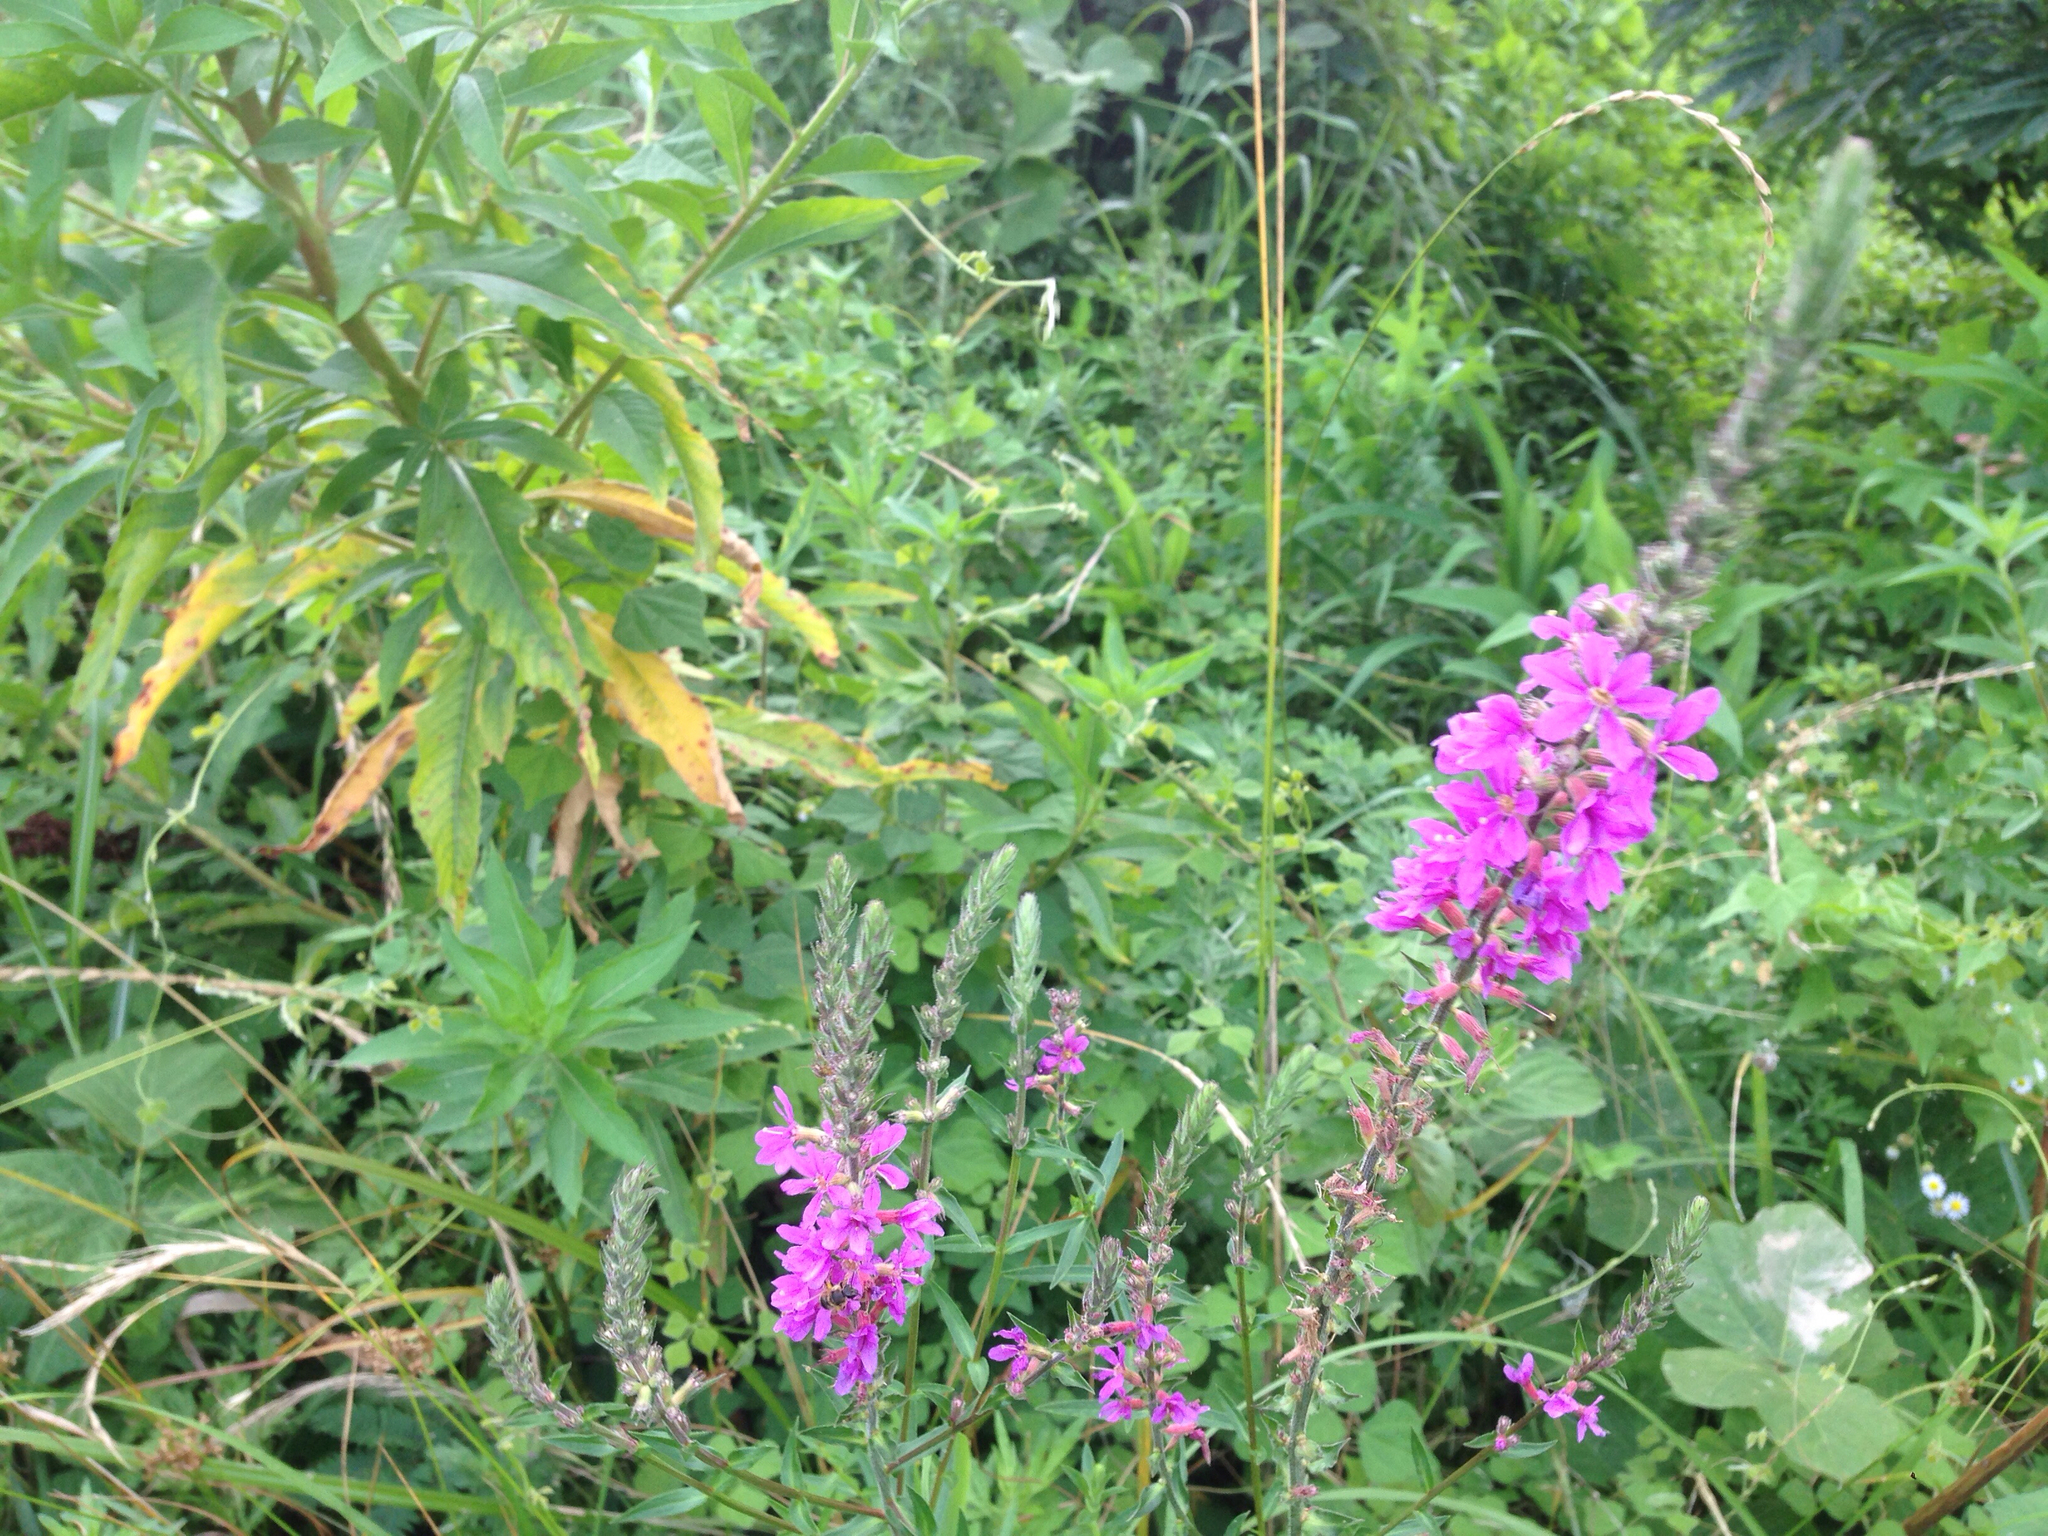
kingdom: Plantae
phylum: Tracheophyta
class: Magnoliopsida
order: Myrtales
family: Lythraceae
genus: Lythrum
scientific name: Lythrum salicaria
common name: Purple loosestrife
